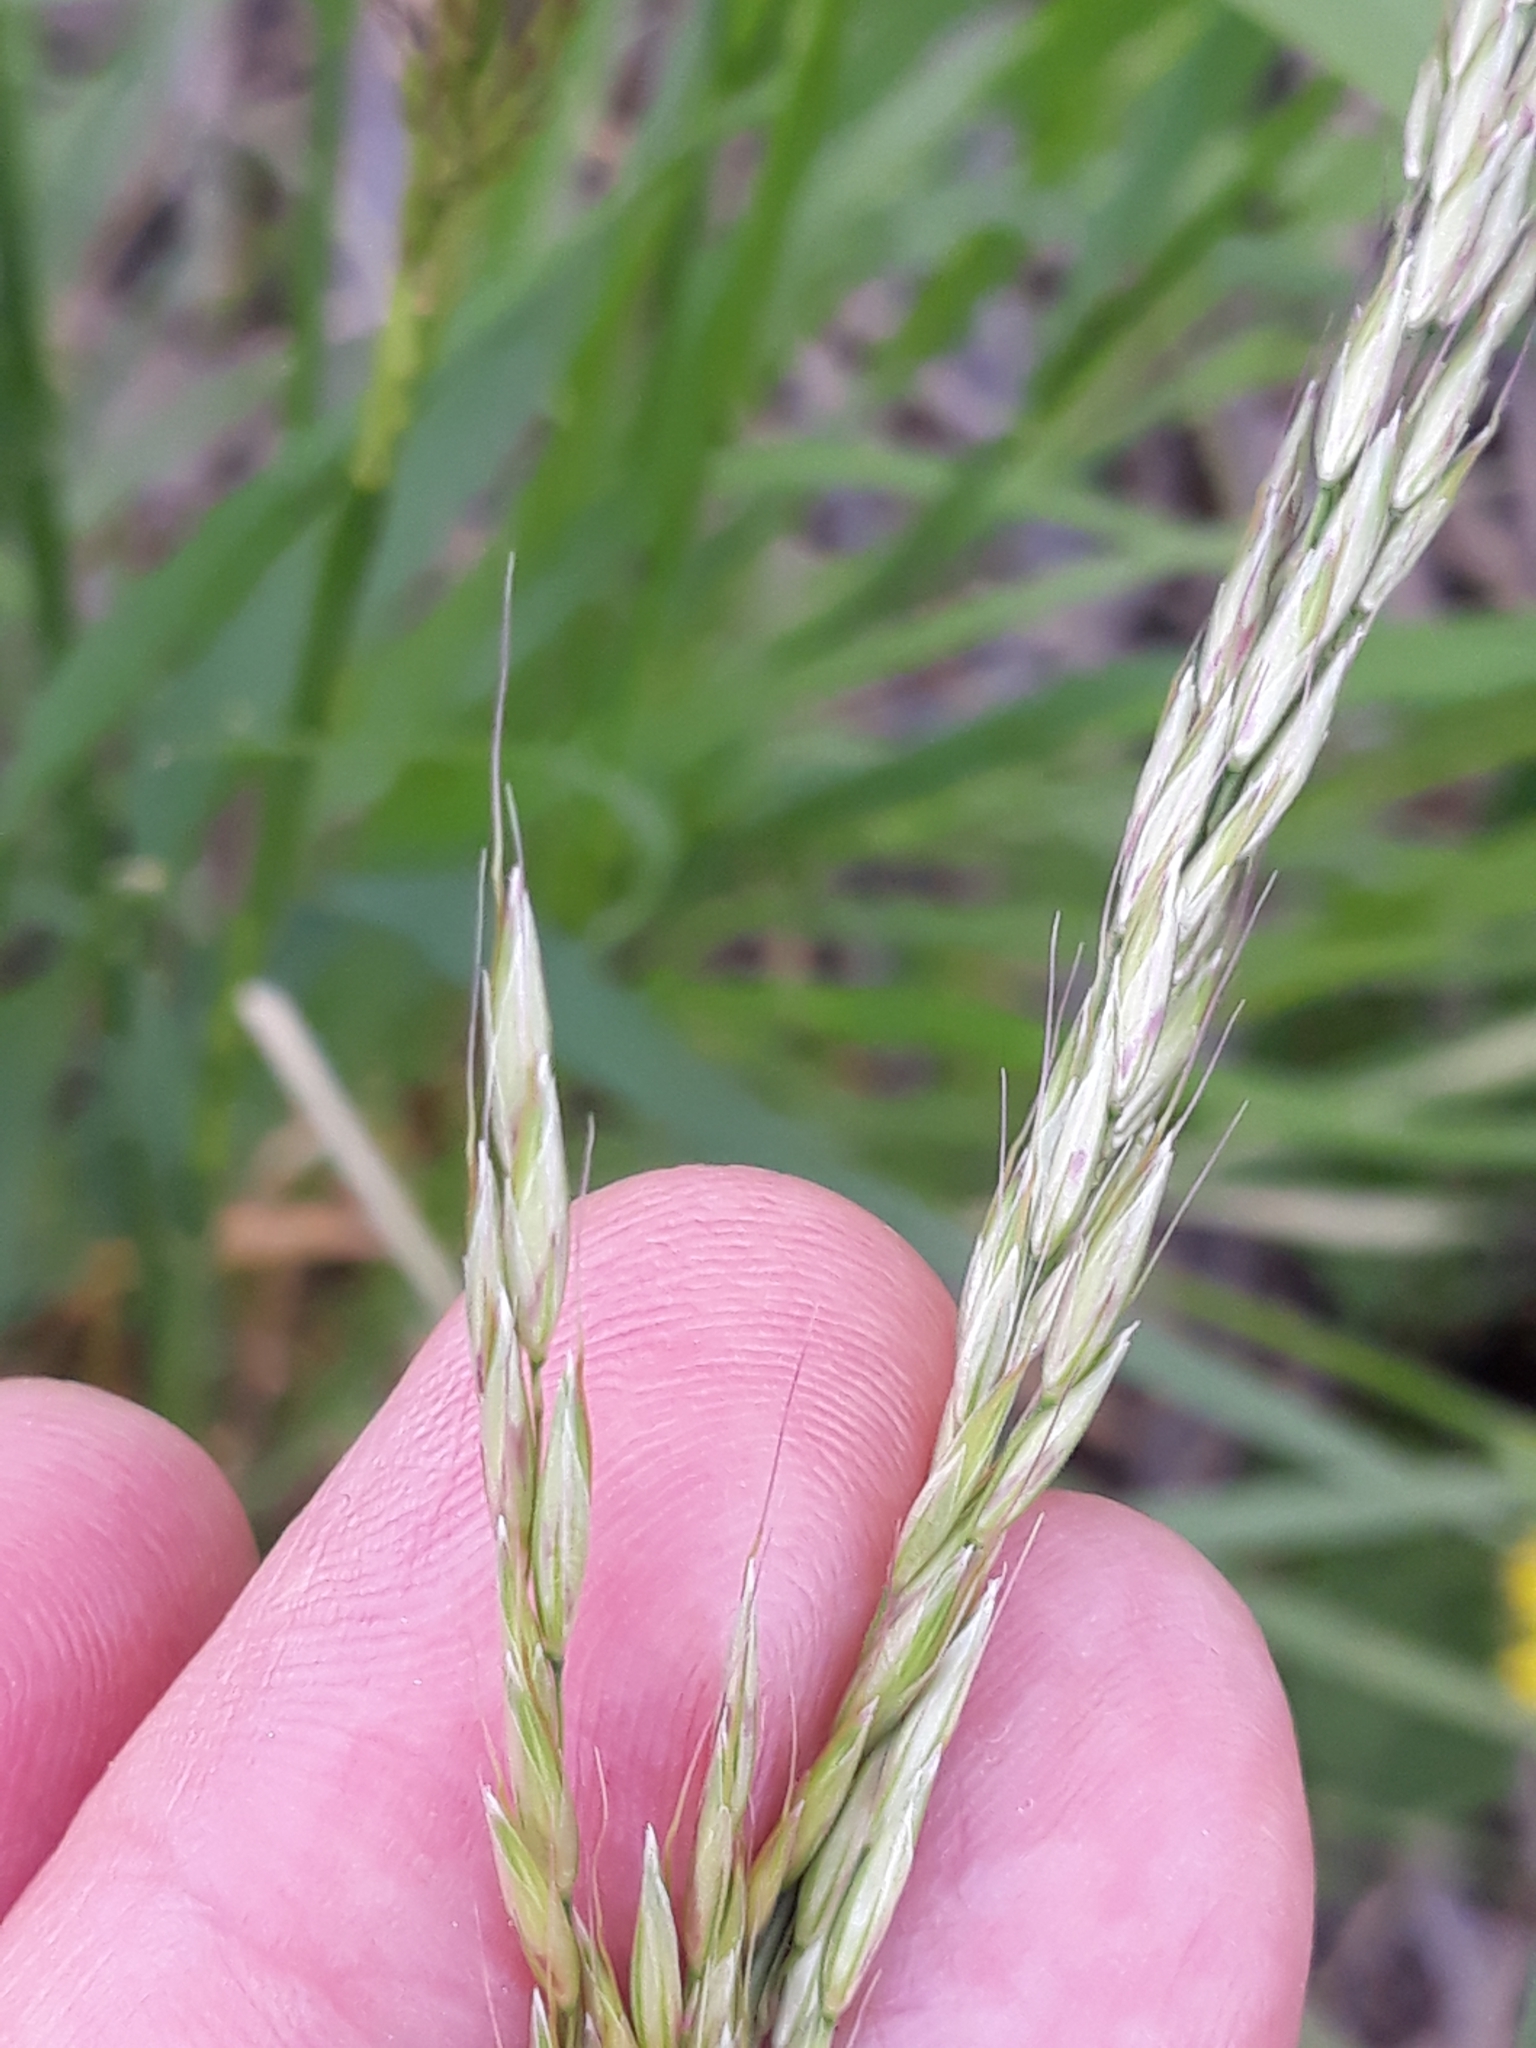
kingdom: Plantae
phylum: Tracheophyta
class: Liliopsida
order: Poales
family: Poaceae
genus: Arrhenatherum
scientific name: Arrhenatherum elatius
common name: Tall oatgrass
